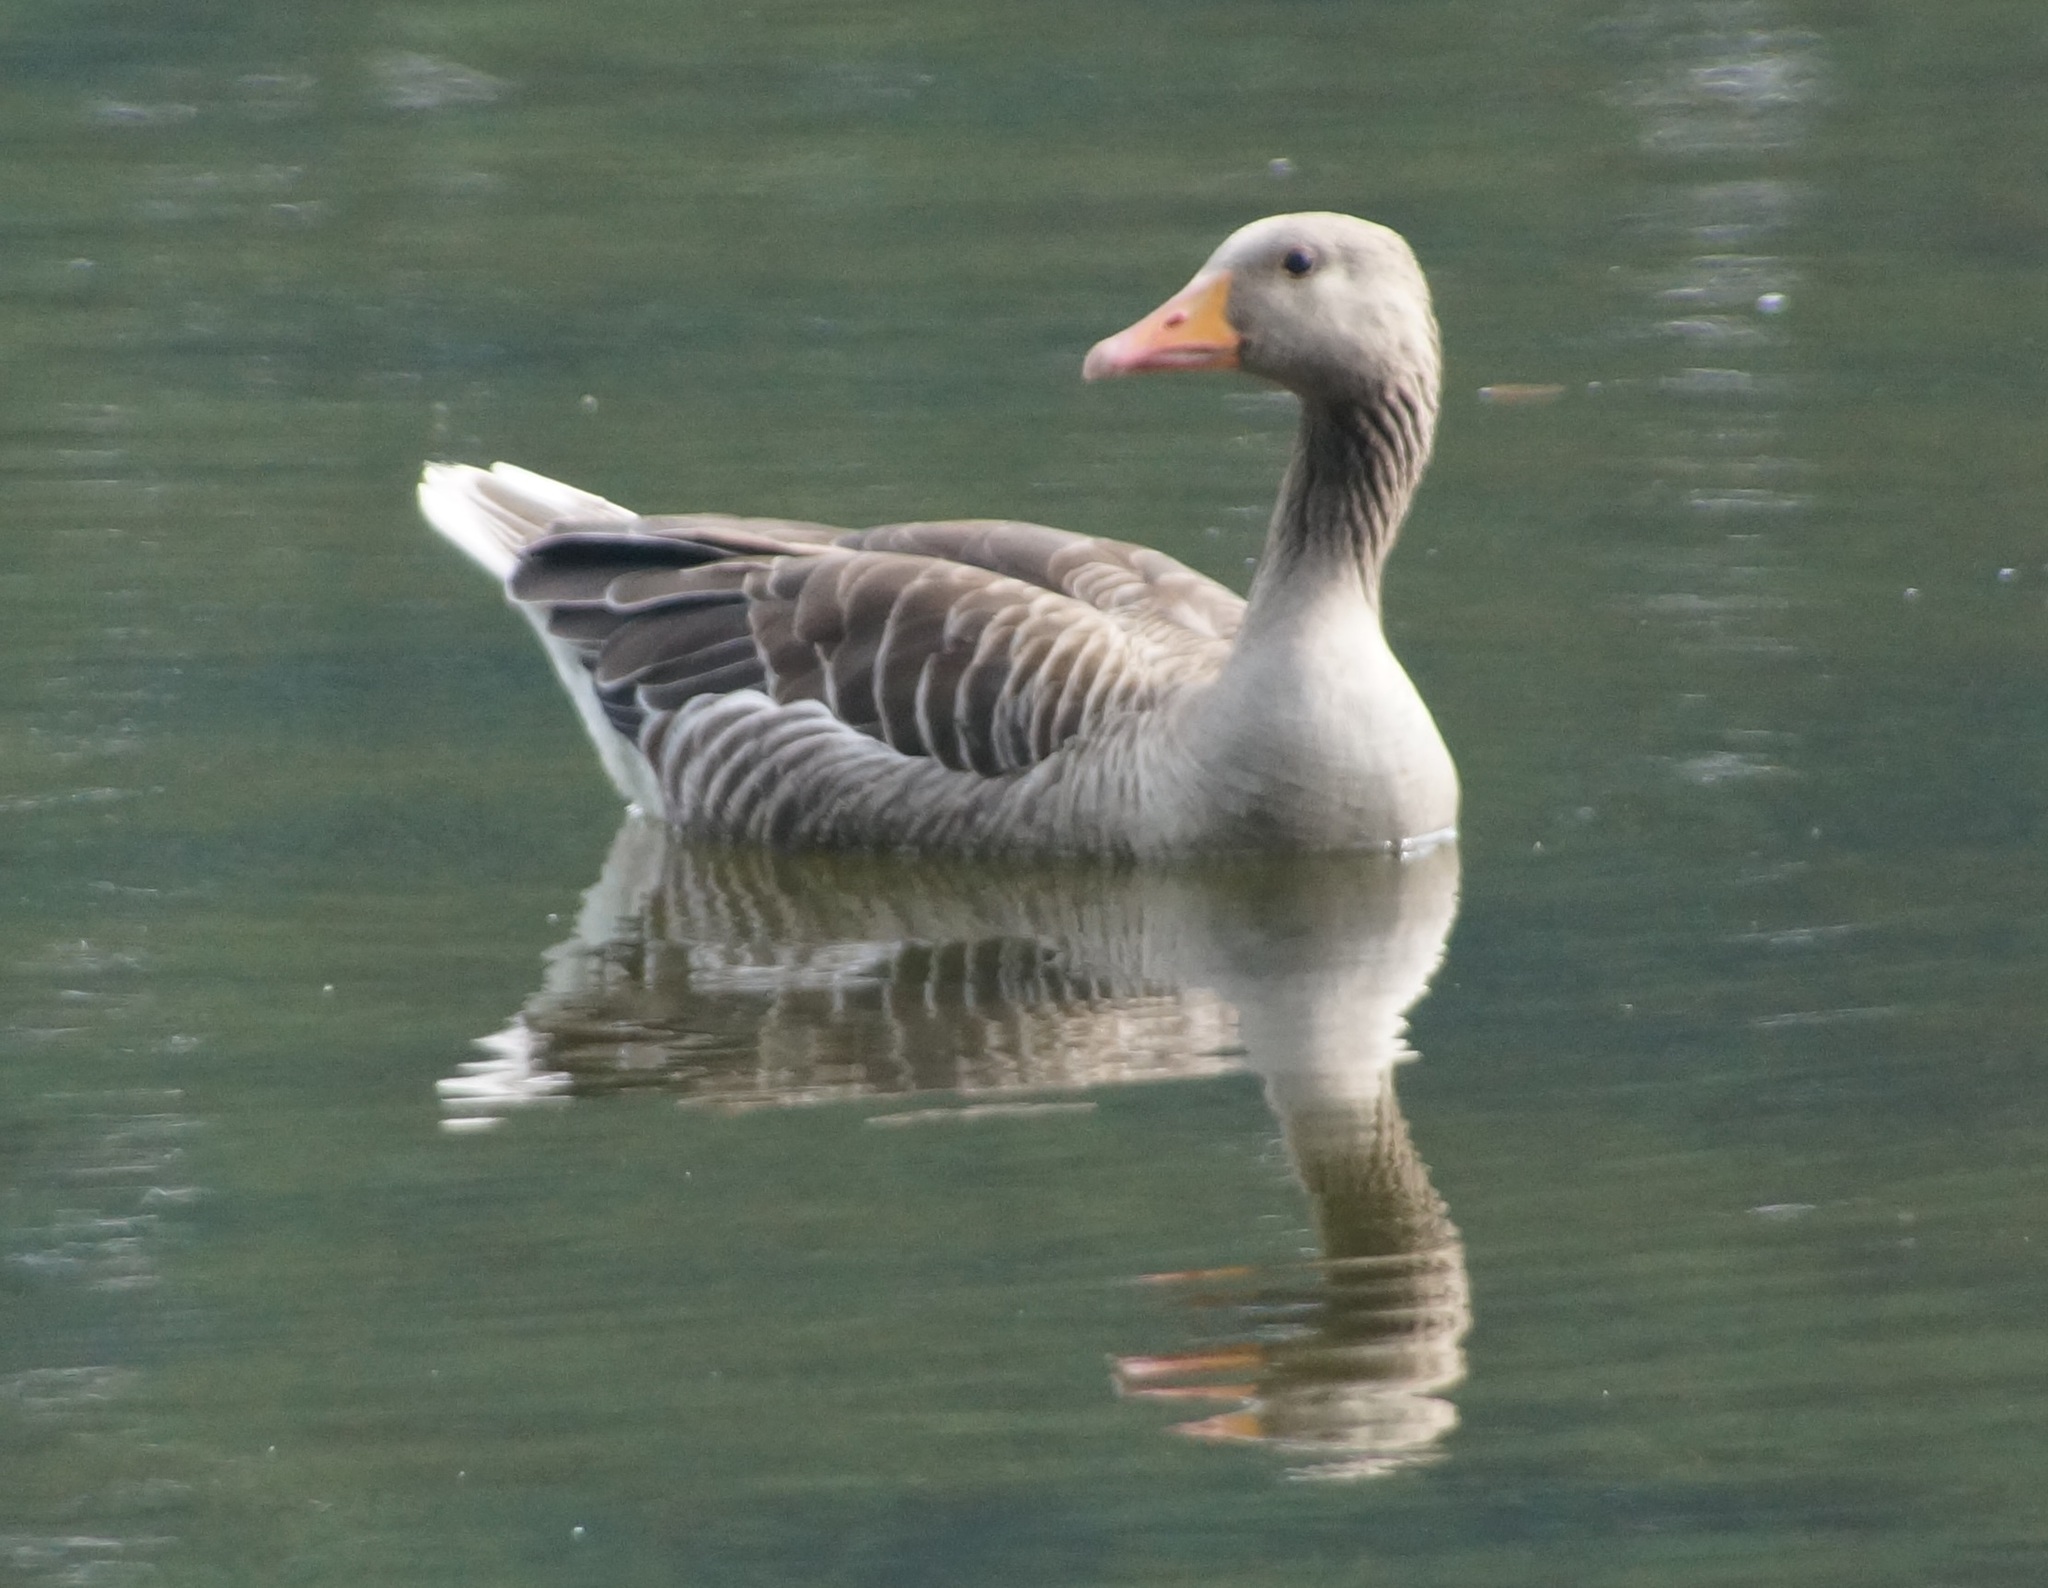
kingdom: Animalia
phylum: Chordata
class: Aves
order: Anseriformes
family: Anatidae
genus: Anser
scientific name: Anser anser
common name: Greylag goose
